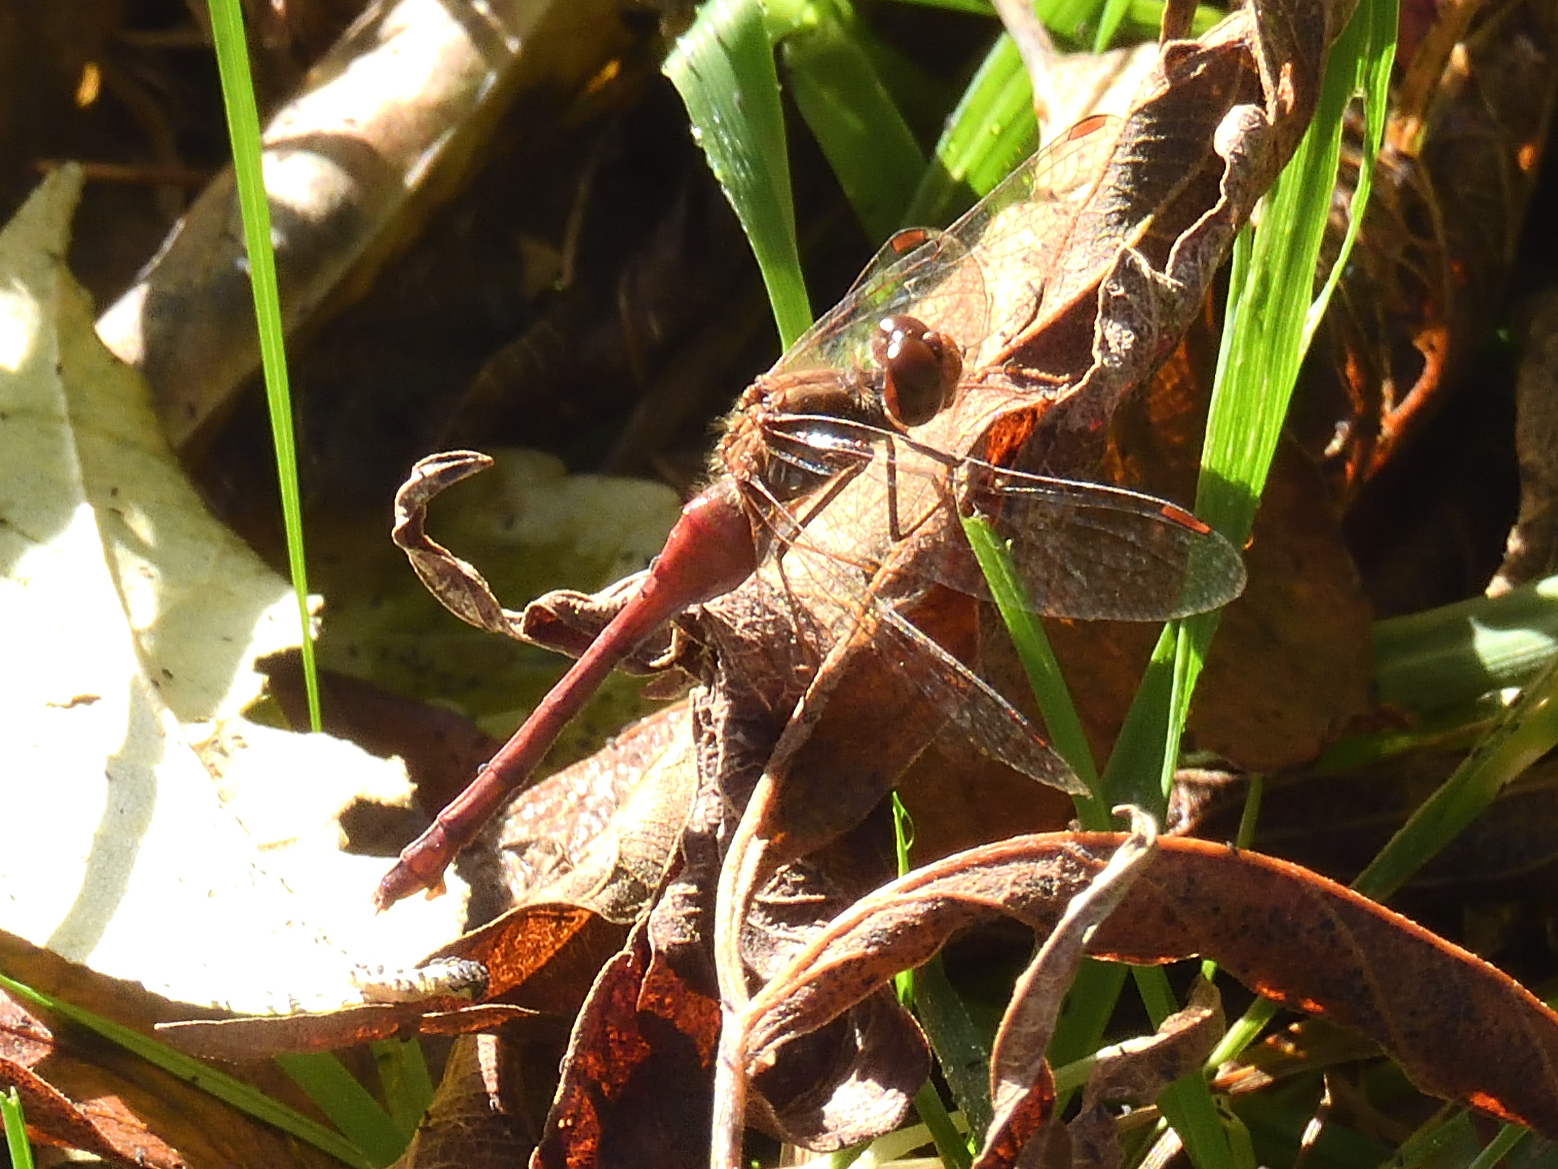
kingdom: Animalia
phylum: Arthropoda
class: Insecta
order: Odonata
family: Libellulidae
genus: Sympetrum
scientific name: Sympetrum vicinum
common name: Autumn meadowhawk
